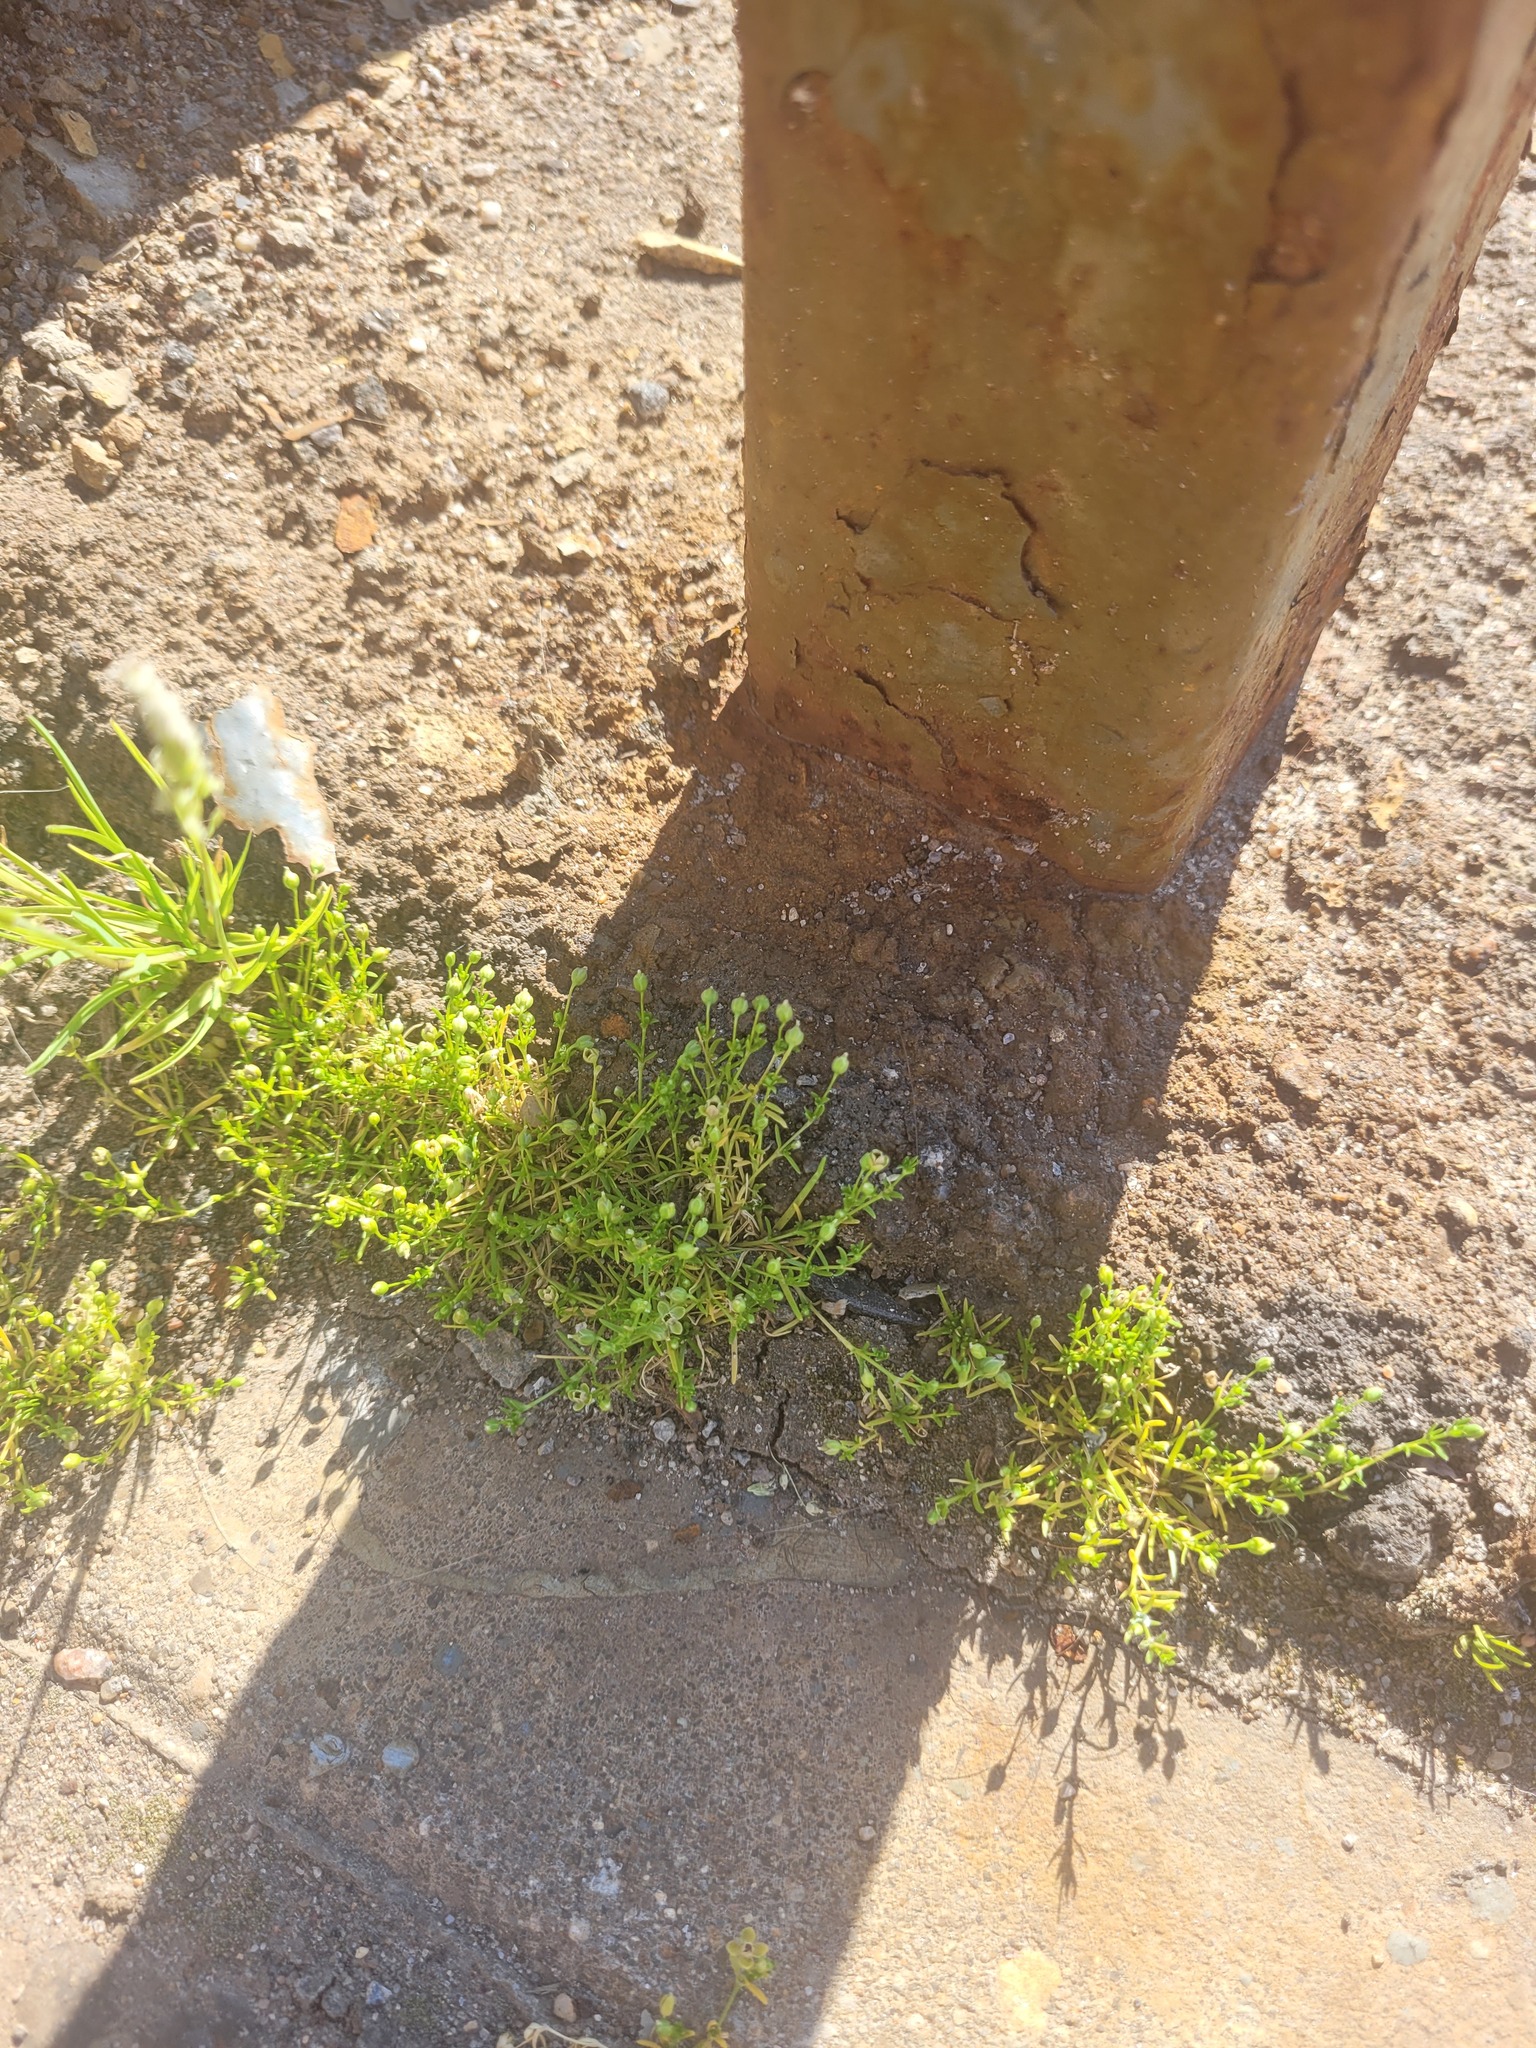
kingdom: Plantae
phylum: Tracheophyta
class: Magnoliopsida
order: Caryophyllales
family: Caryophyllaceae
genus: Sagina
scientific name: Sagina procumbens
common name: Procumbent pearlwort
